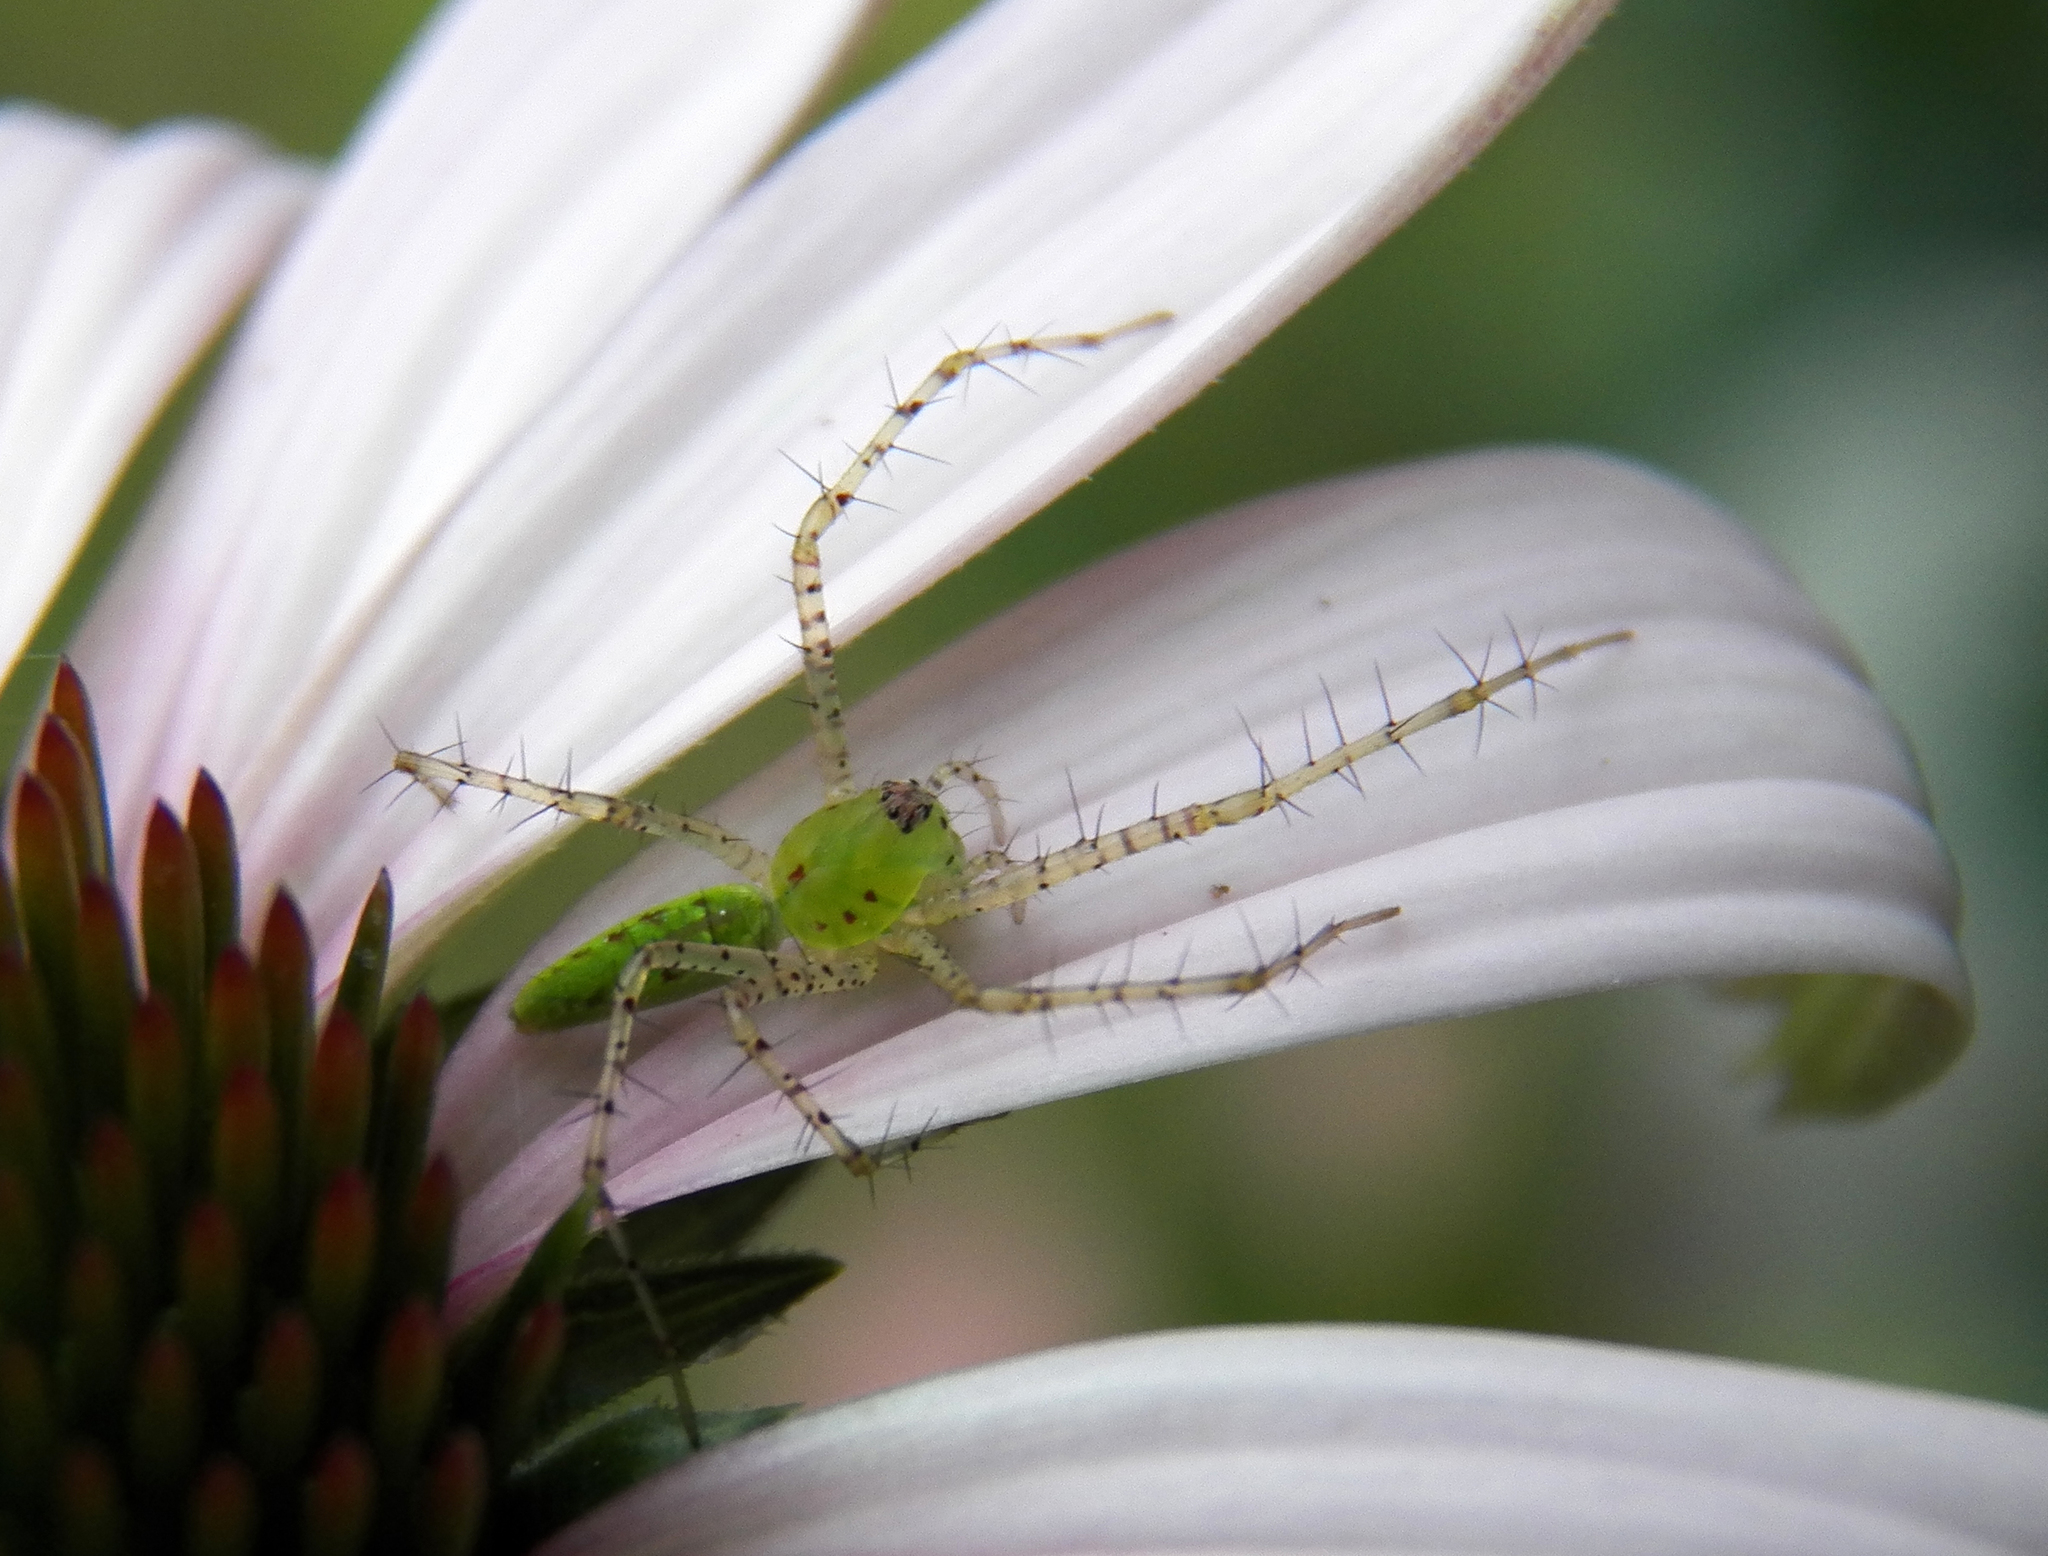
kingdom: Animalia
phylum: Arthropoda
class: Arachnida
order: Araneae
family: Oxyopidae
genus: Peucetia
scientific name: Peucetia viridans
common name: Lynx spiders
